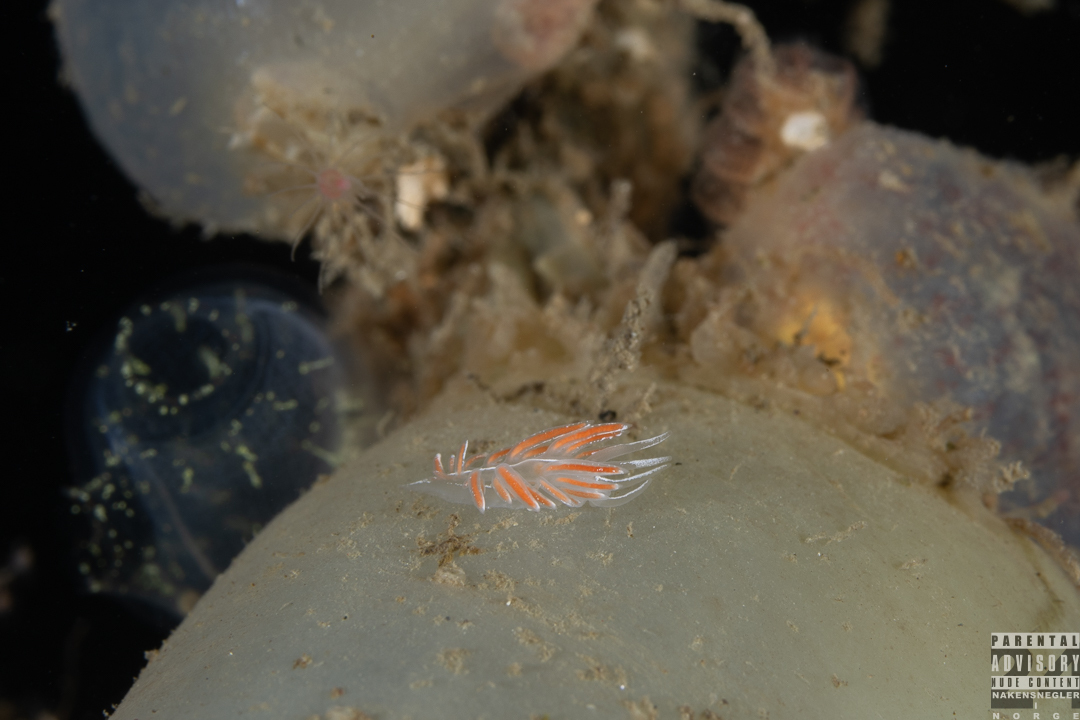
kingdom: Animalia
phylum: Mollusca
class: Gastropoda
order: Nudibranchia
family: Coryphellidae
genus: Coryphella
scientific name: Coryphella lineata
